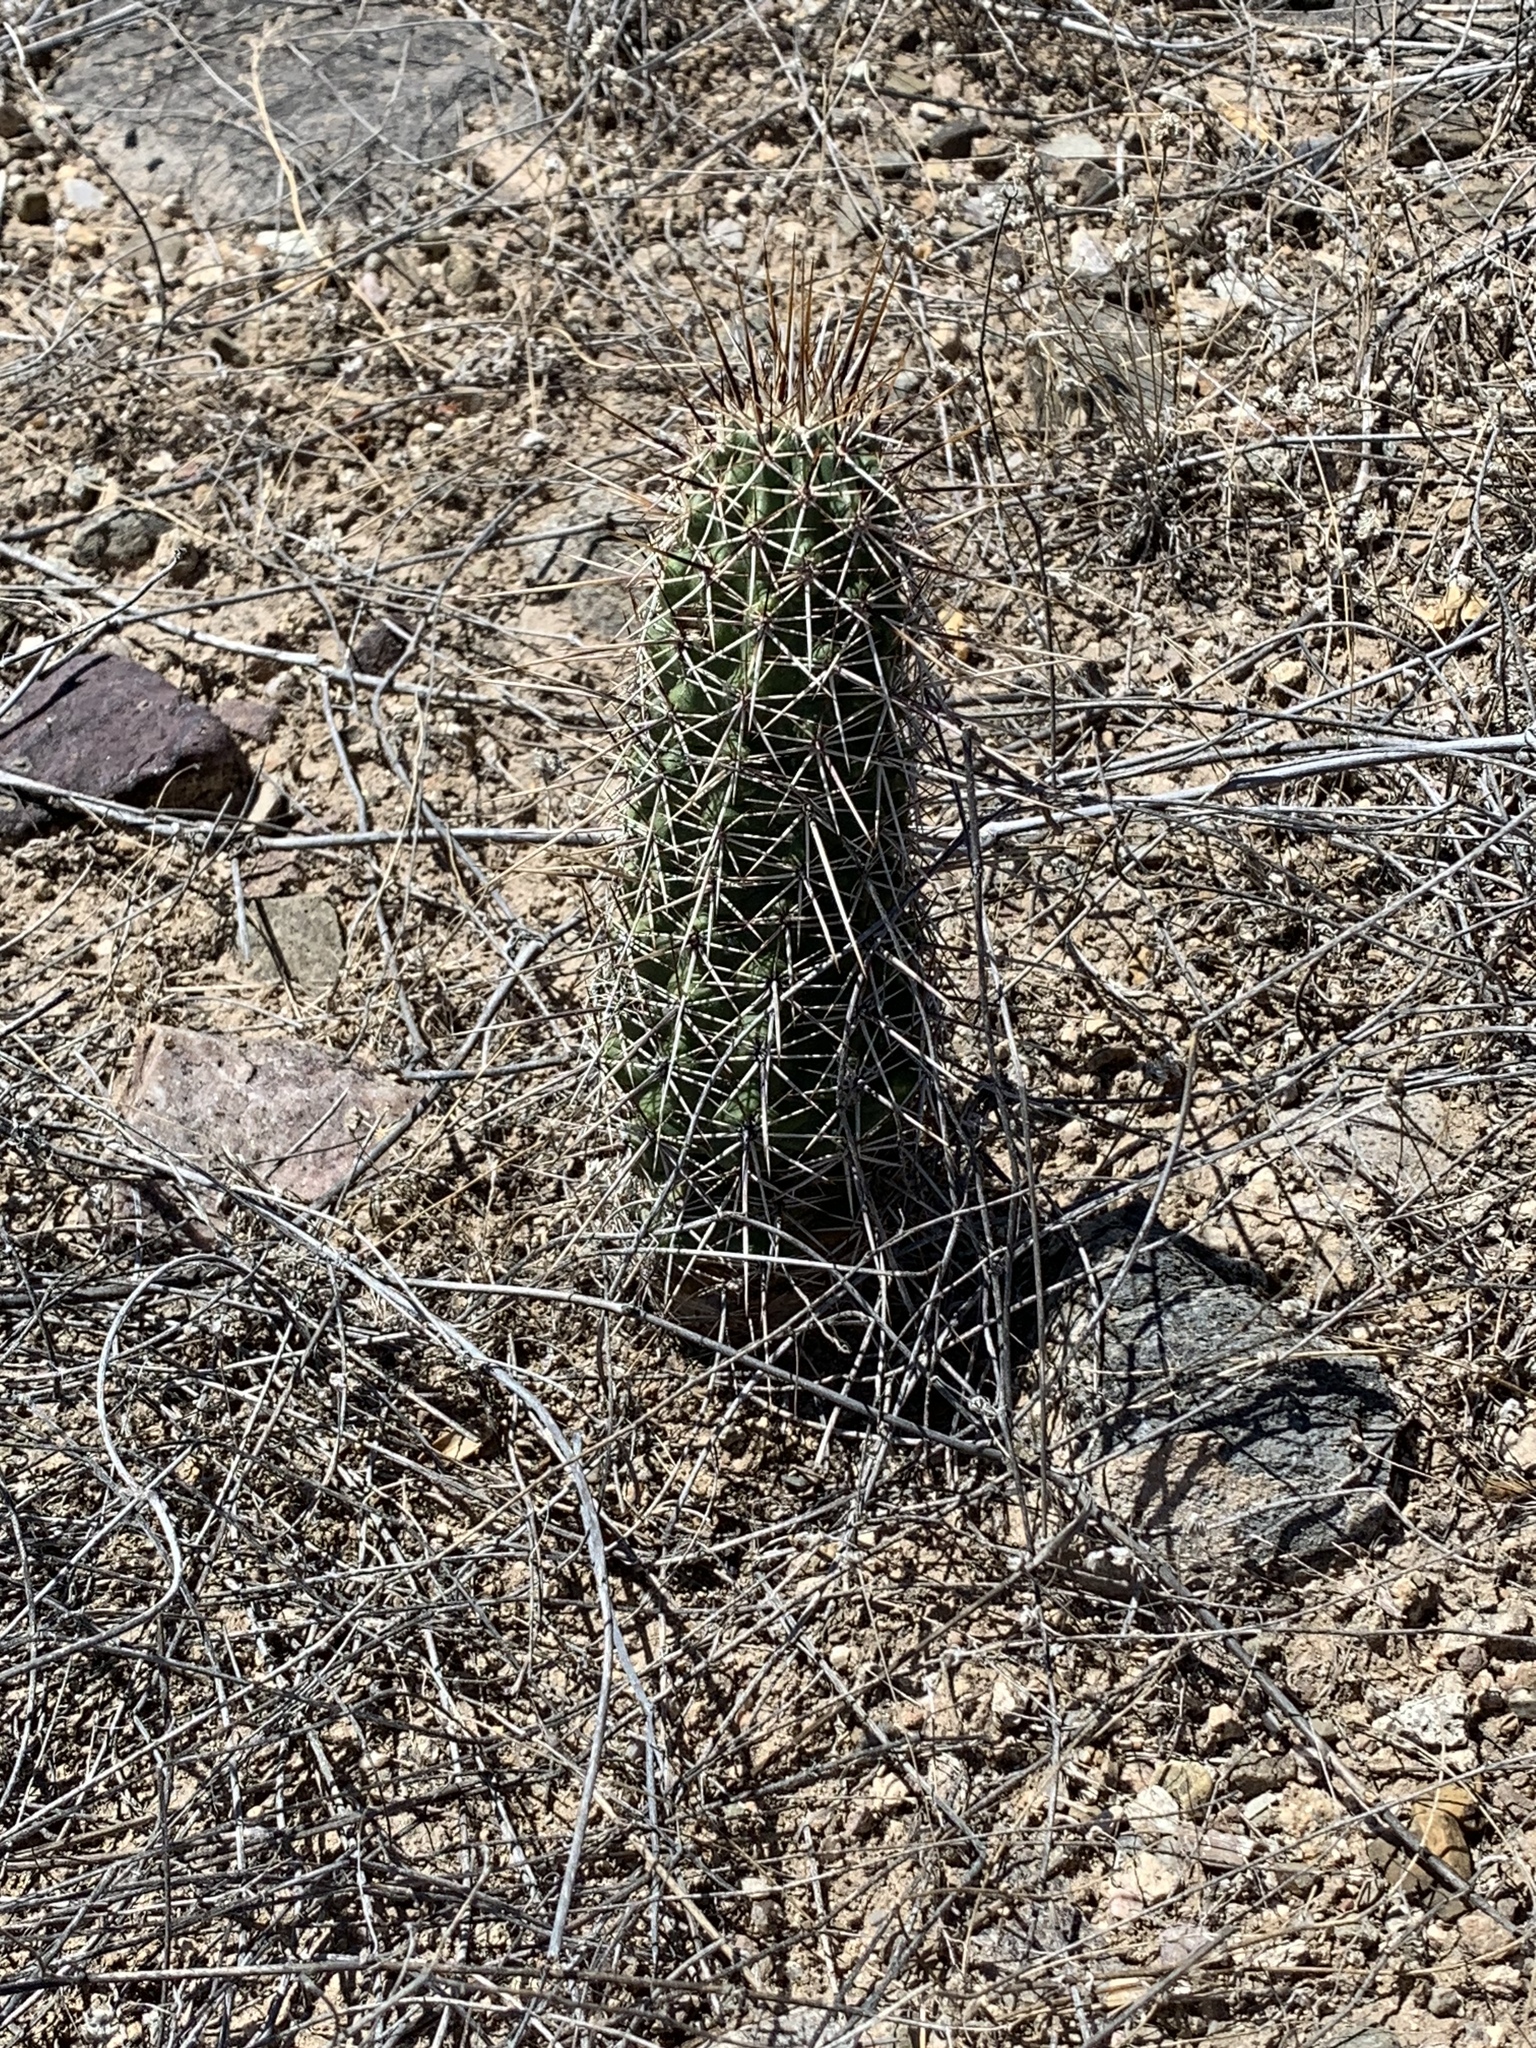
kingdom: Plantae
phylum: Tracheophyta
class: Magnoliopsida
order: Caryophyllales
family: Cactaceae
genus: Echinocereus
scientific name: Echinocereus fasciculatus
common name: Bundle hedgehog
